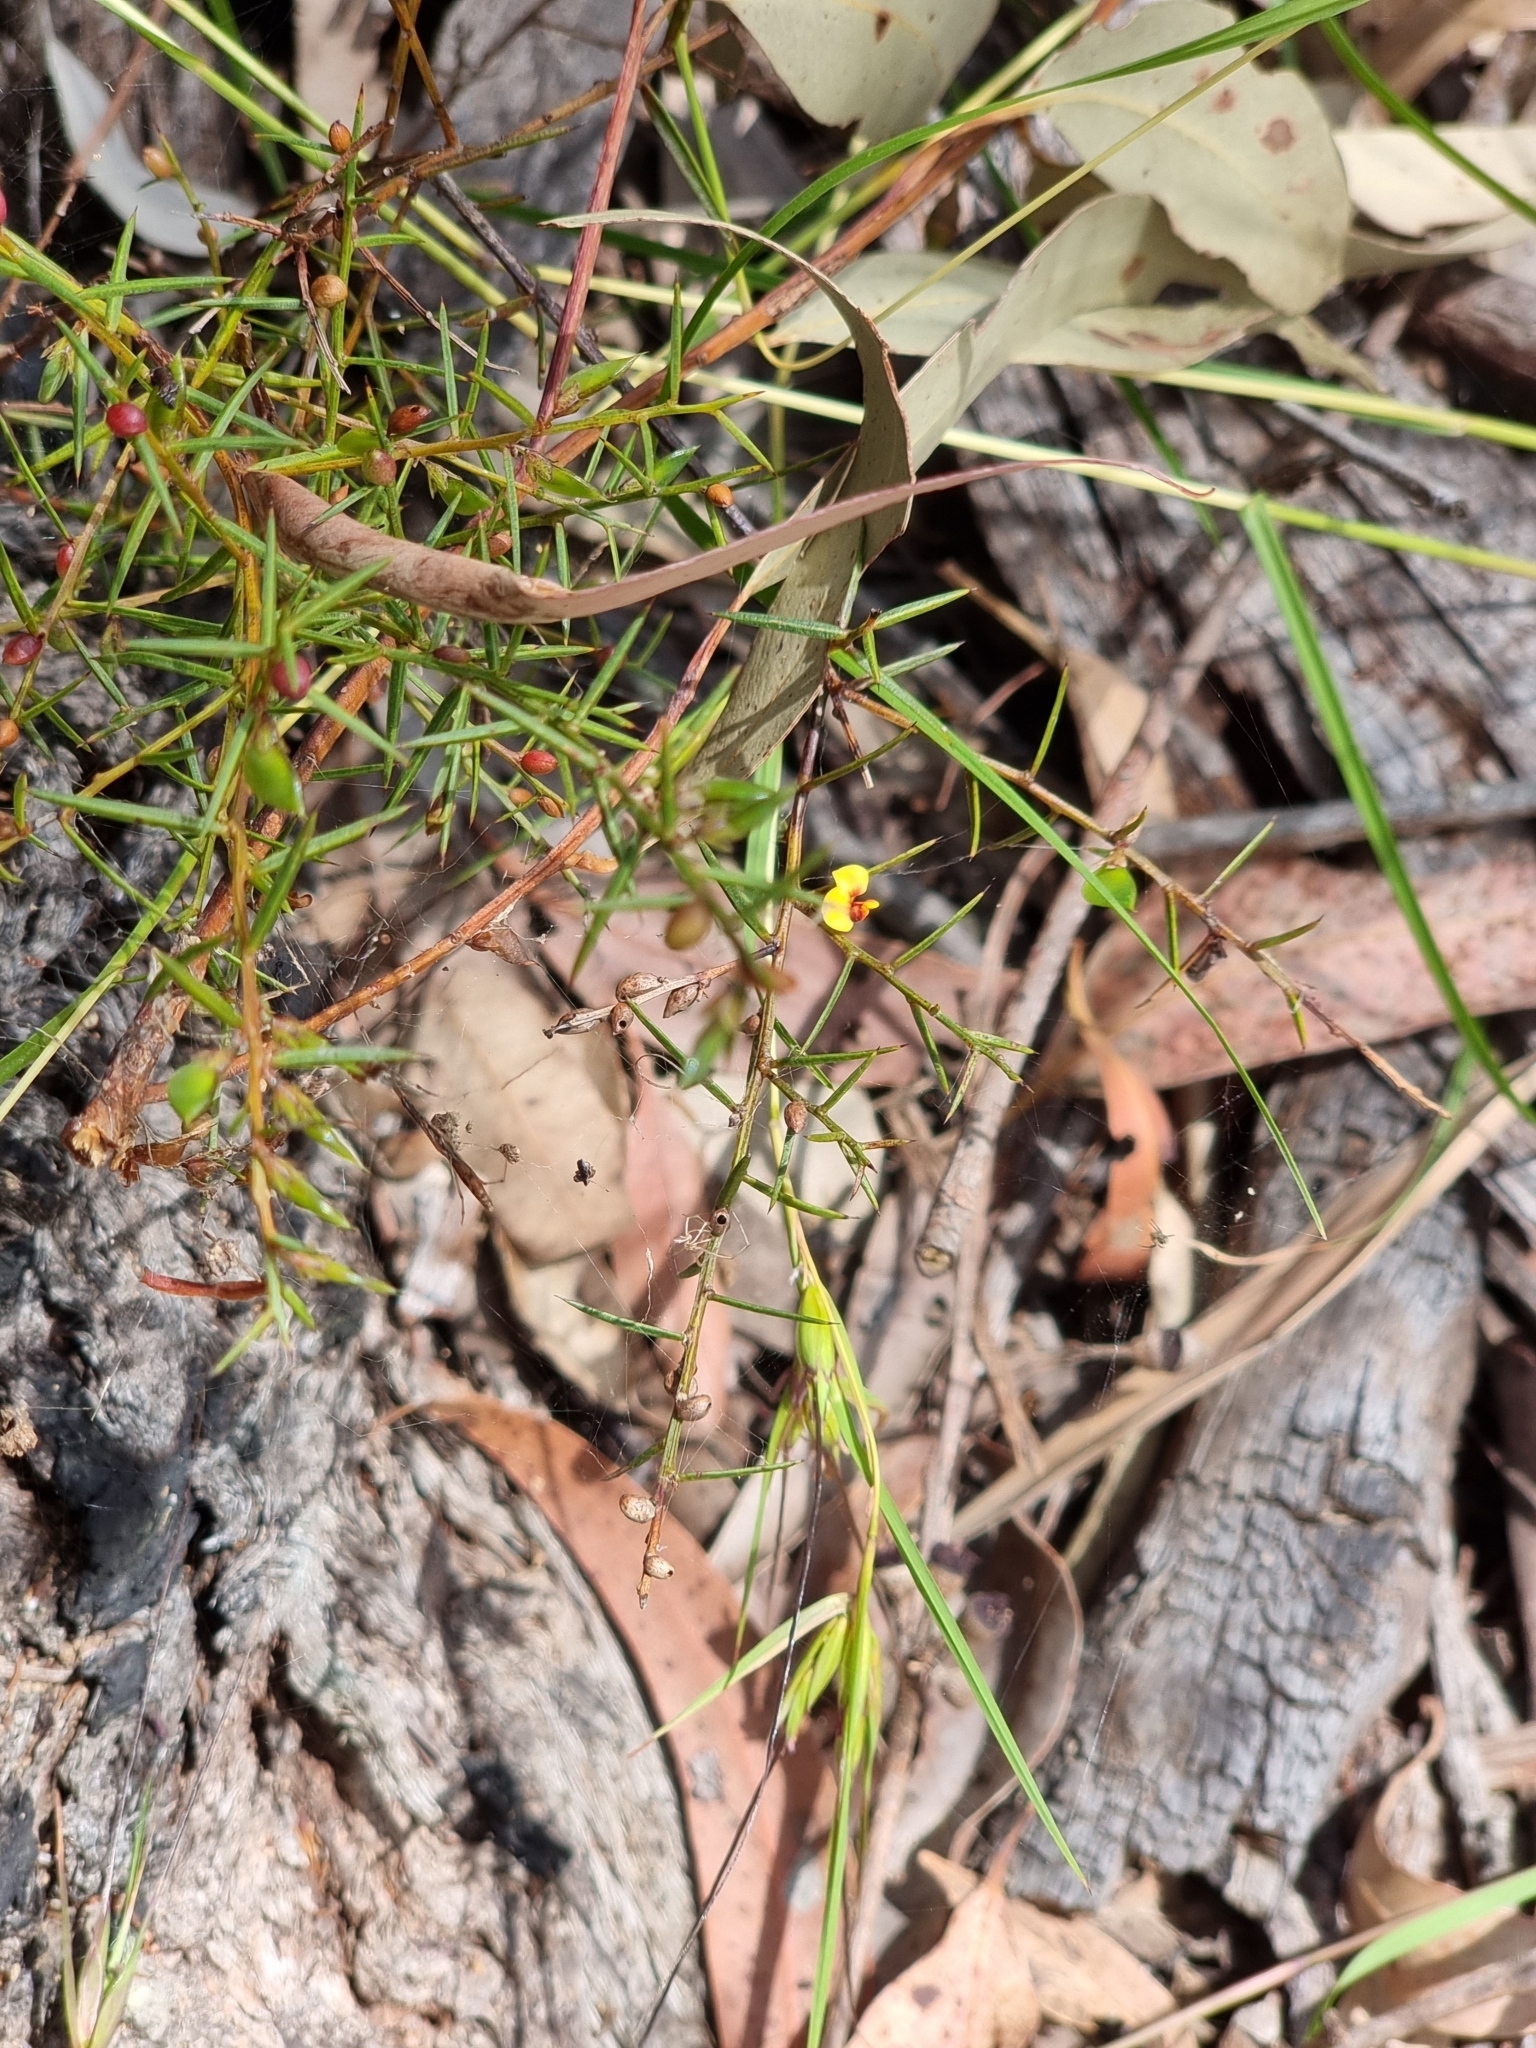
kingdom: Plantae
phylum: Tracheophyta
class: Magnoliopsida
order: Fabales
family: Fabaceae
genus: Daviesia
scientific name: Daviesia ulicifolia
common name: Gorse bitter-pea
